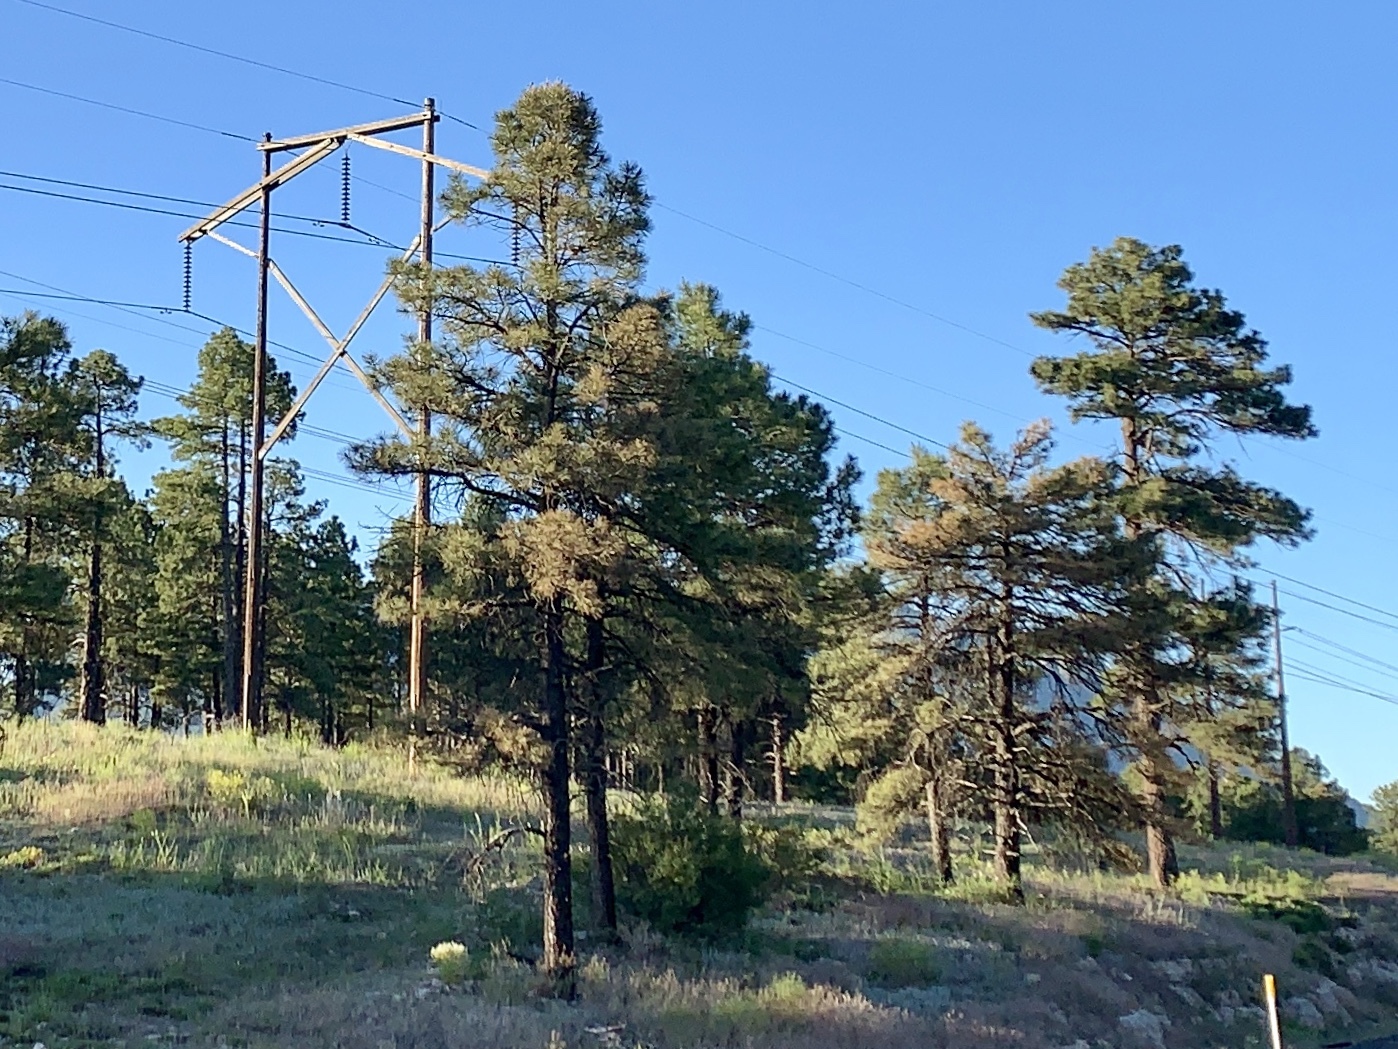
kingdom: Plantae
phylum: Tracheophyta
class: Pinopsida
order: Pinales
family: Pinaceae
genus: Pinus
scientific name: Pinus ponderosa
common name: Western yellow-pine
